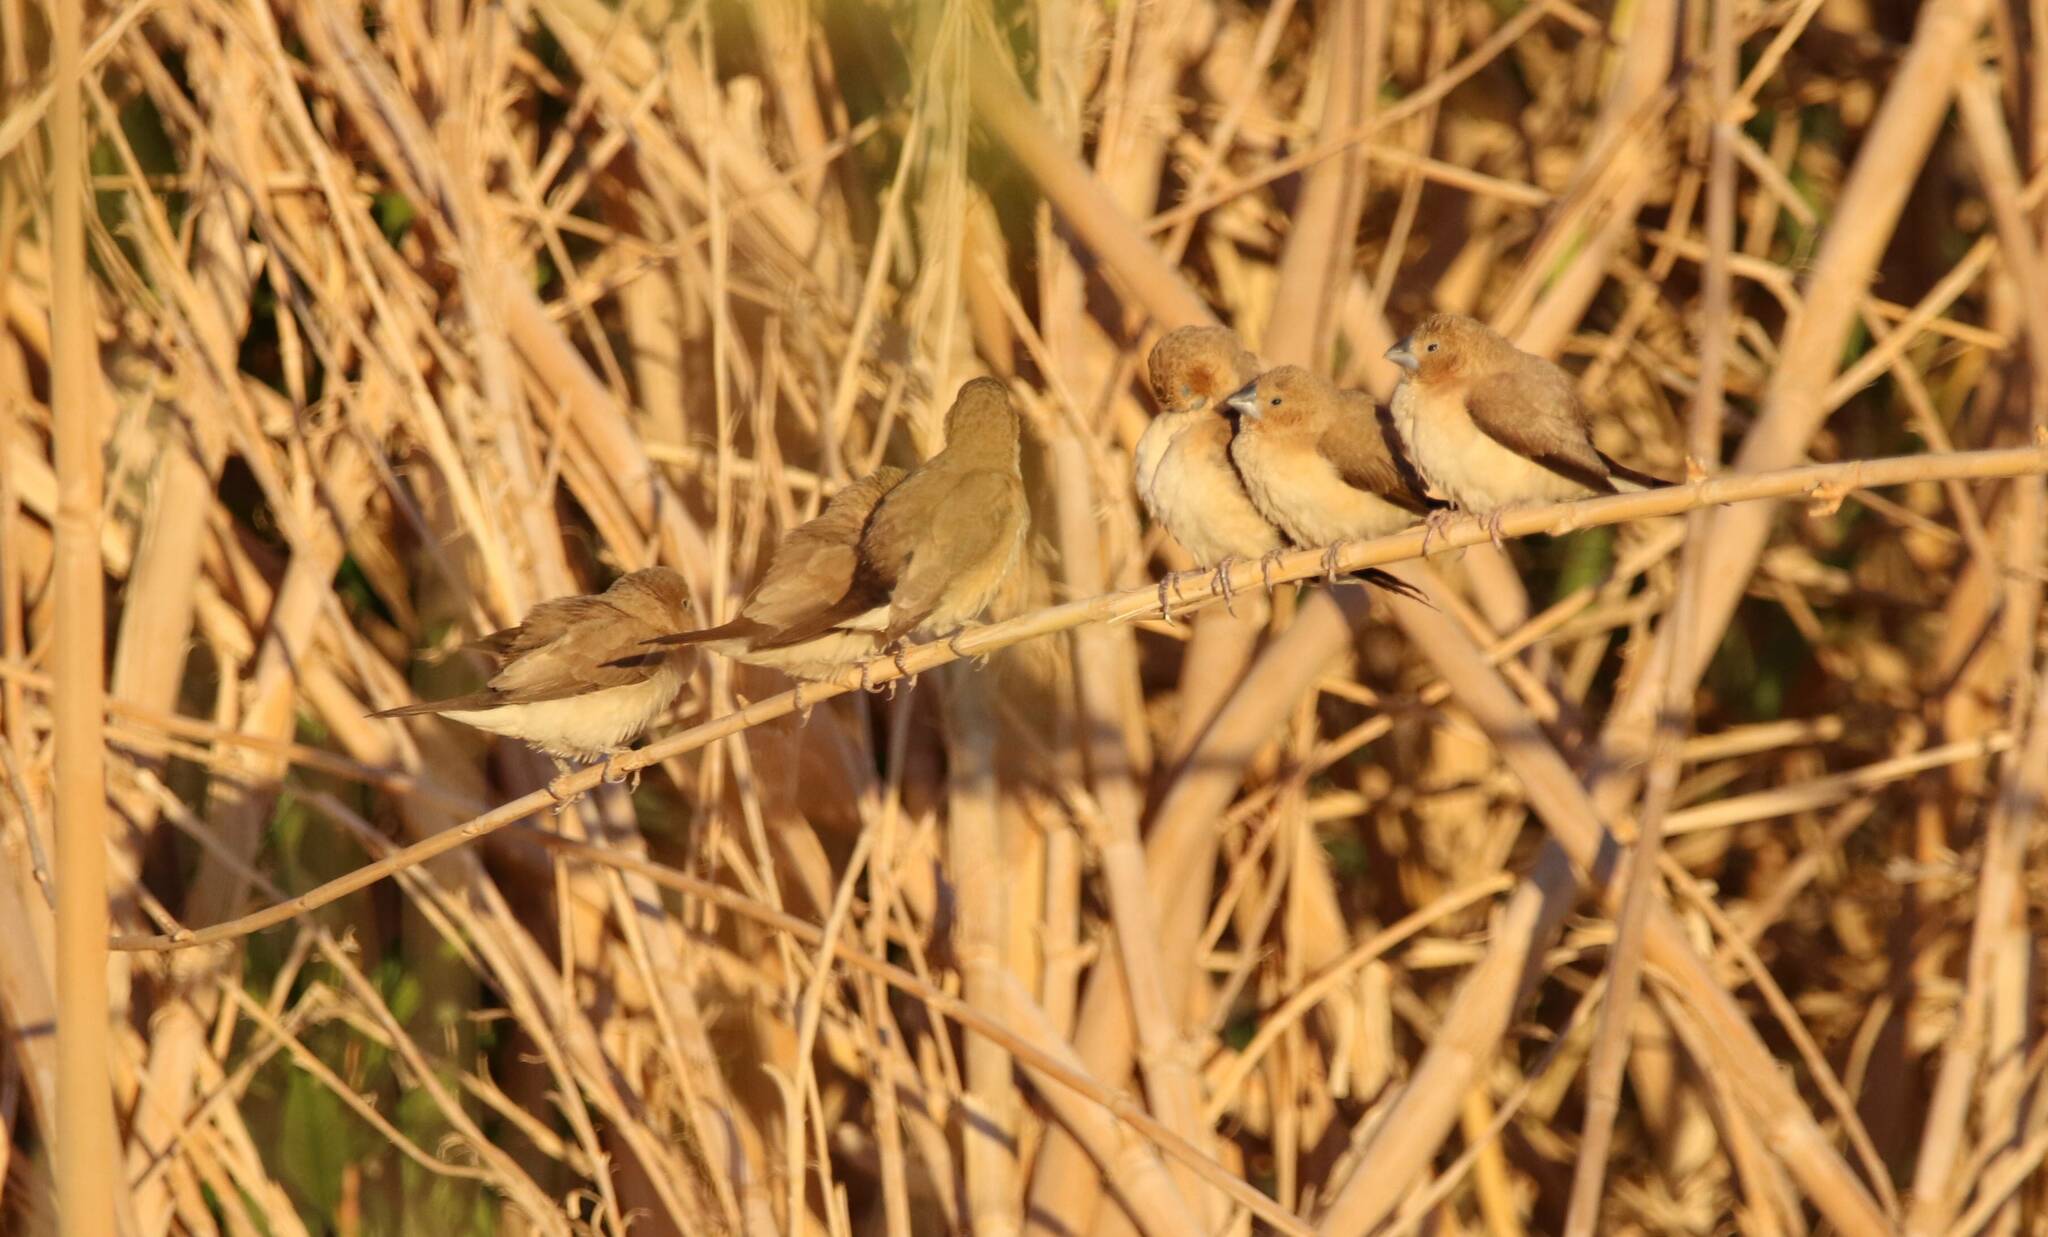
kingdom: Animalia
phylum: Chordata
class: Aves
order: Passeriformes
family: Estrildidae
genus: Euodice
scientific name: Euodice cantans
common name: African silverbill
